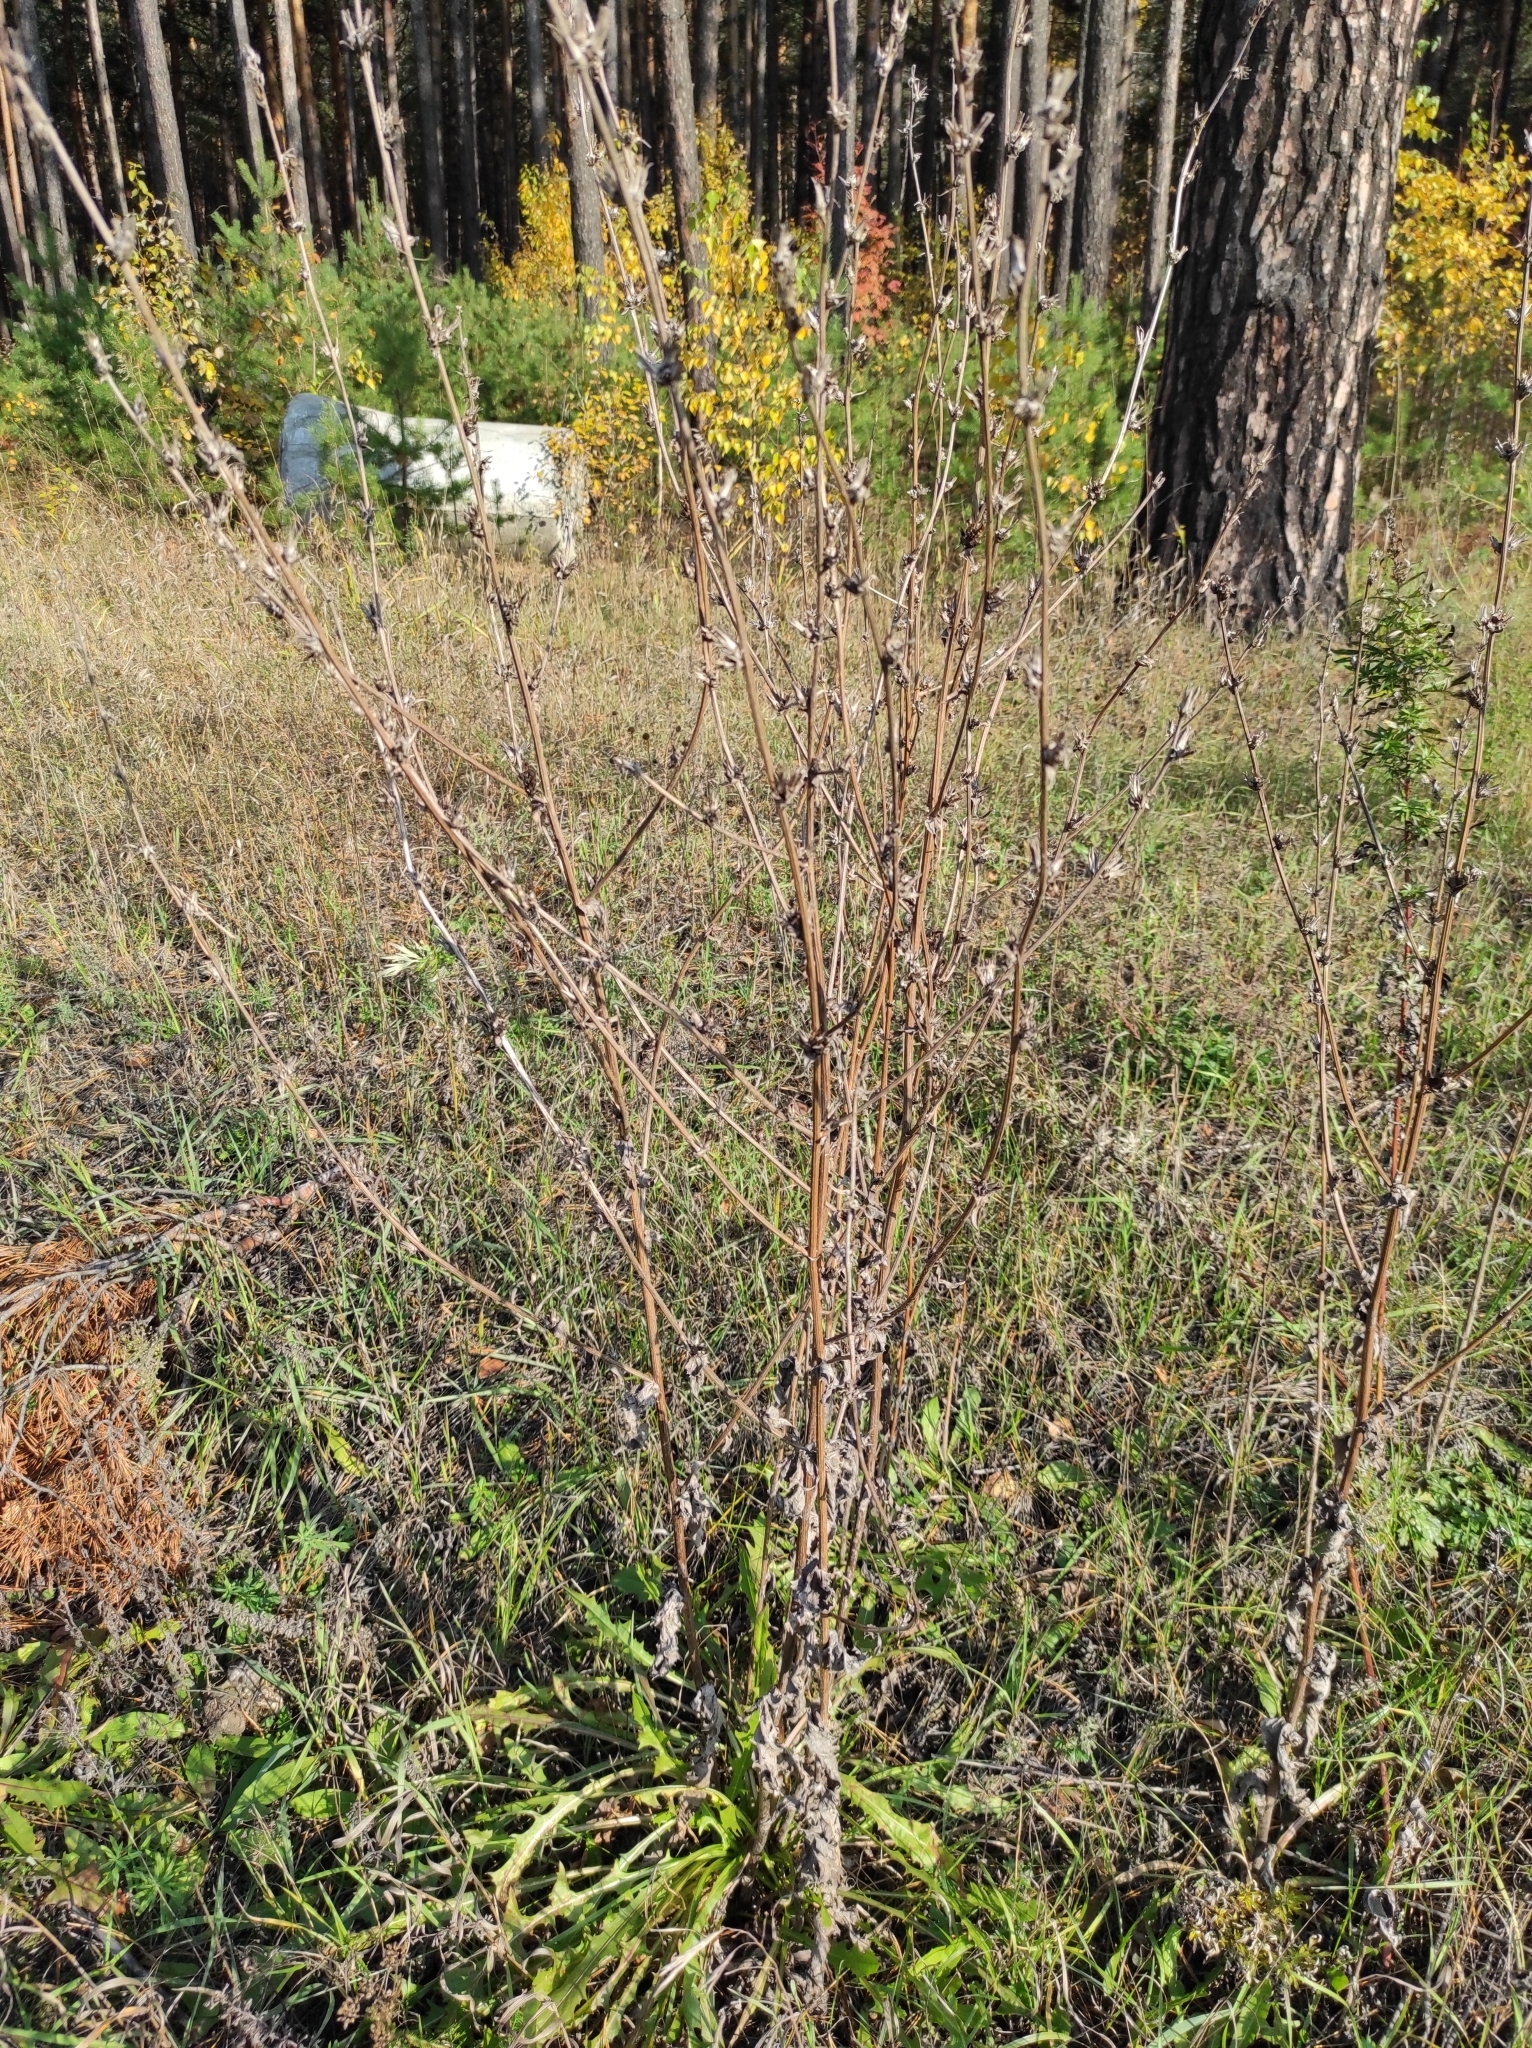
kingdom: Plantae
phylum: Tracheophyta
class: Magnoliopsida
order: Asterales
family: Asteraceae
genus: Cichorium
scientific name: Cichorium intybus
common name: Chicory
